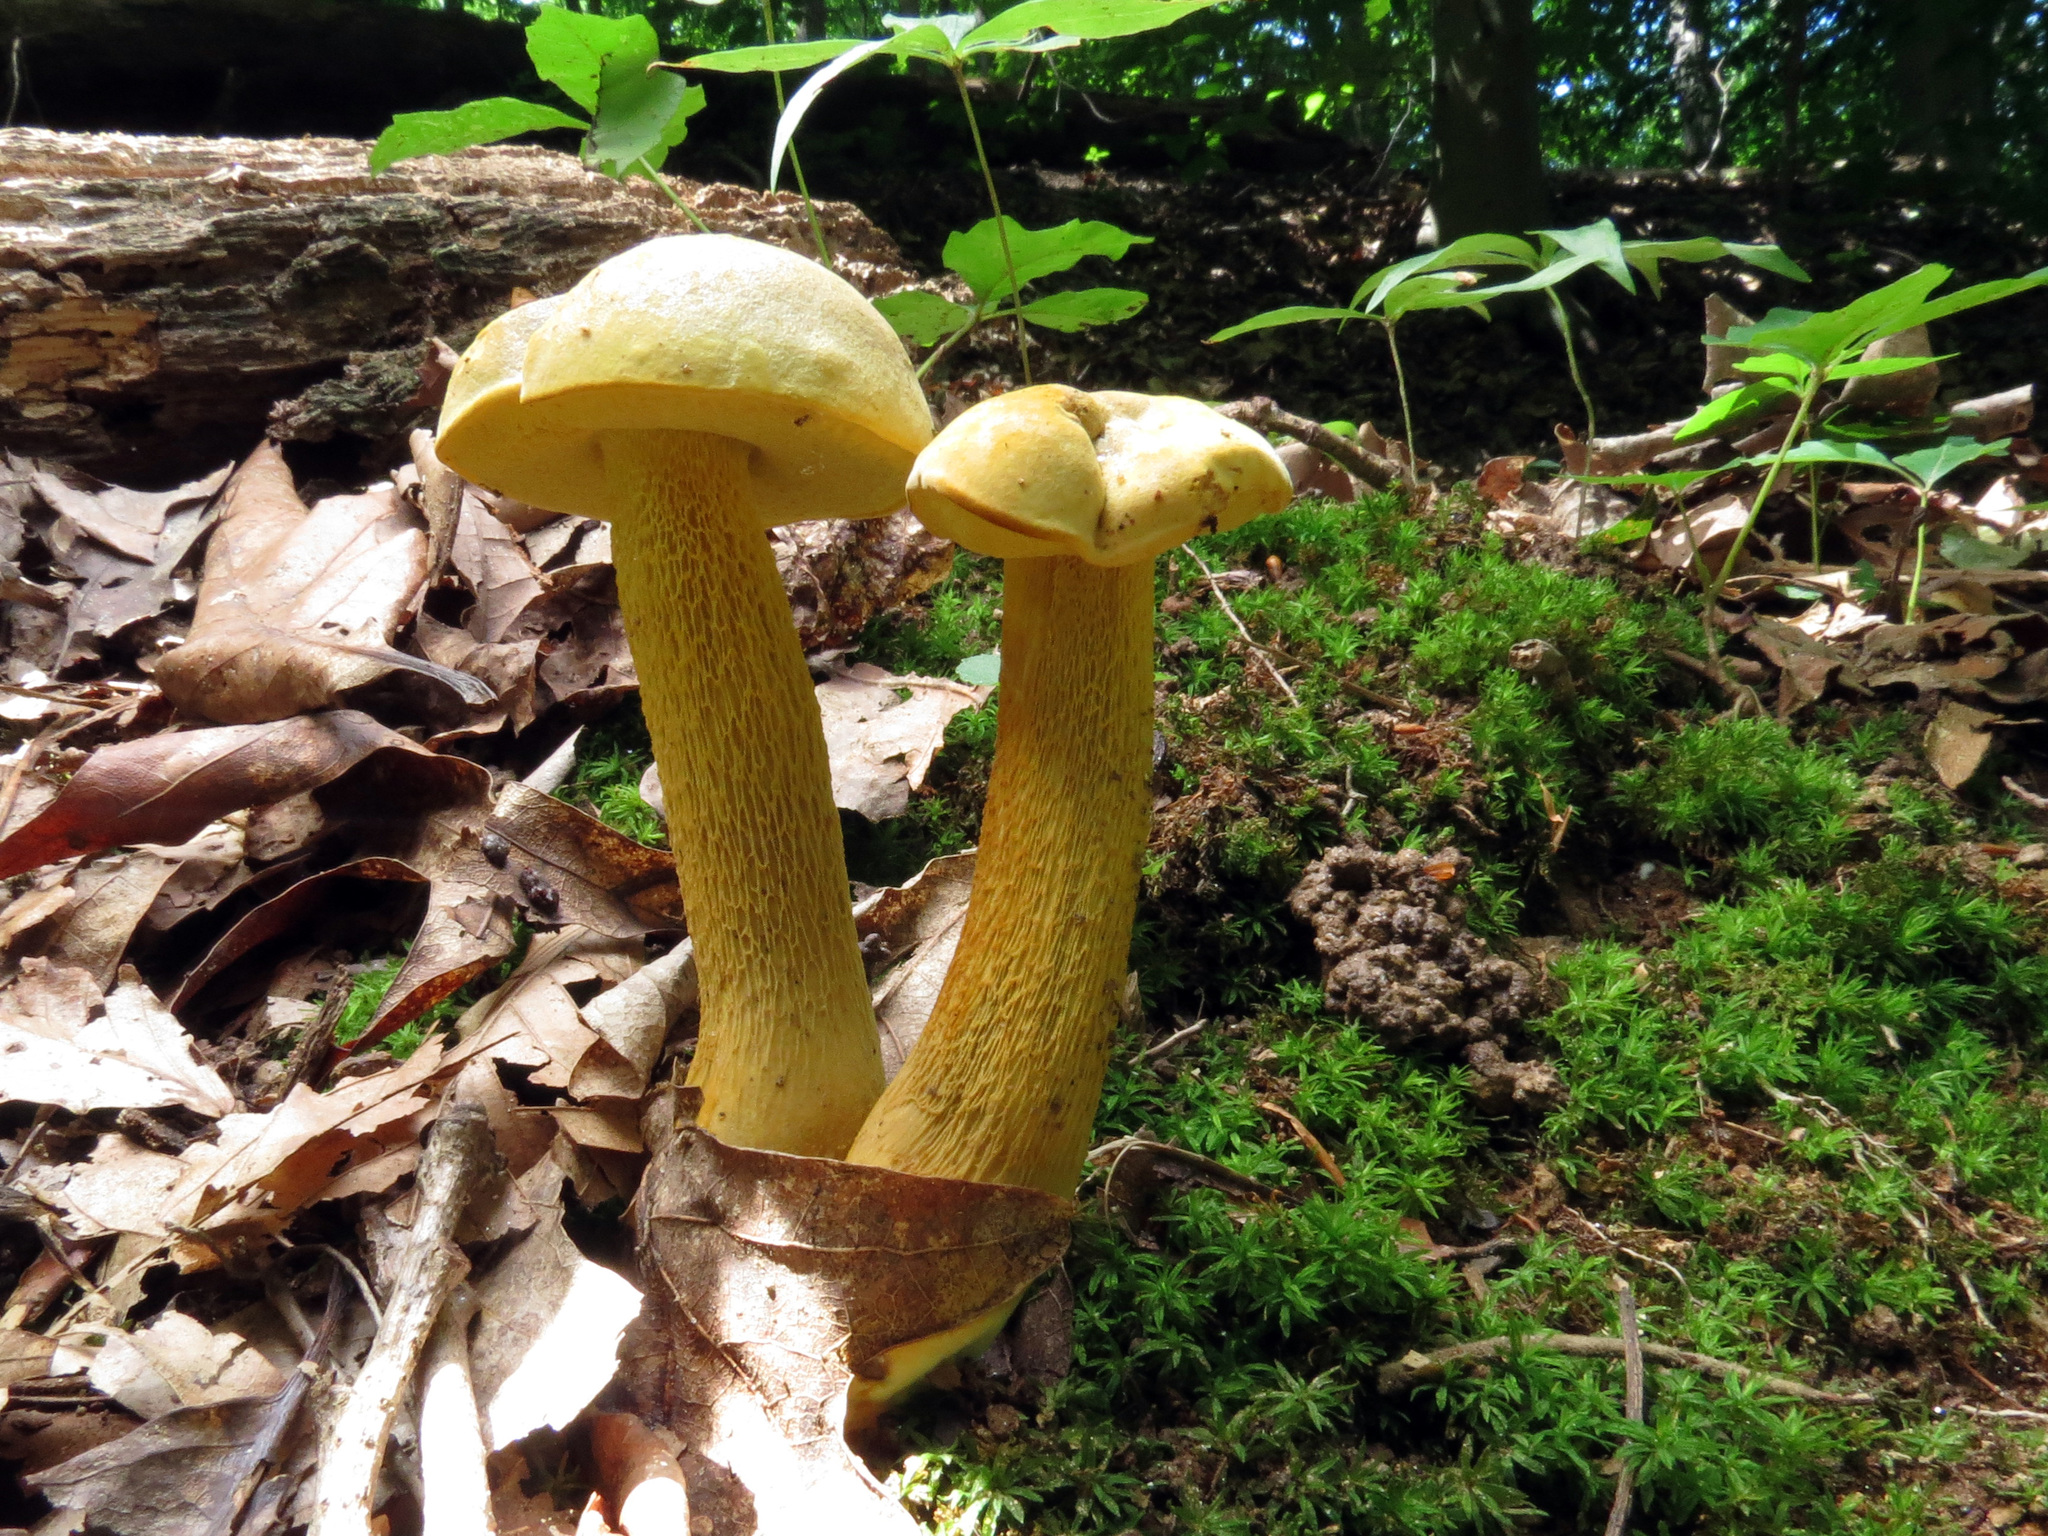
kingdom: Fungi
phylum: Basidiomycota
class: Agaricomycetes
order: Boletales
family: Boletaceae
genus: Retiboletus
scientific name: Retiboletus ornatipes
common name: Ornate-stalked bolete
